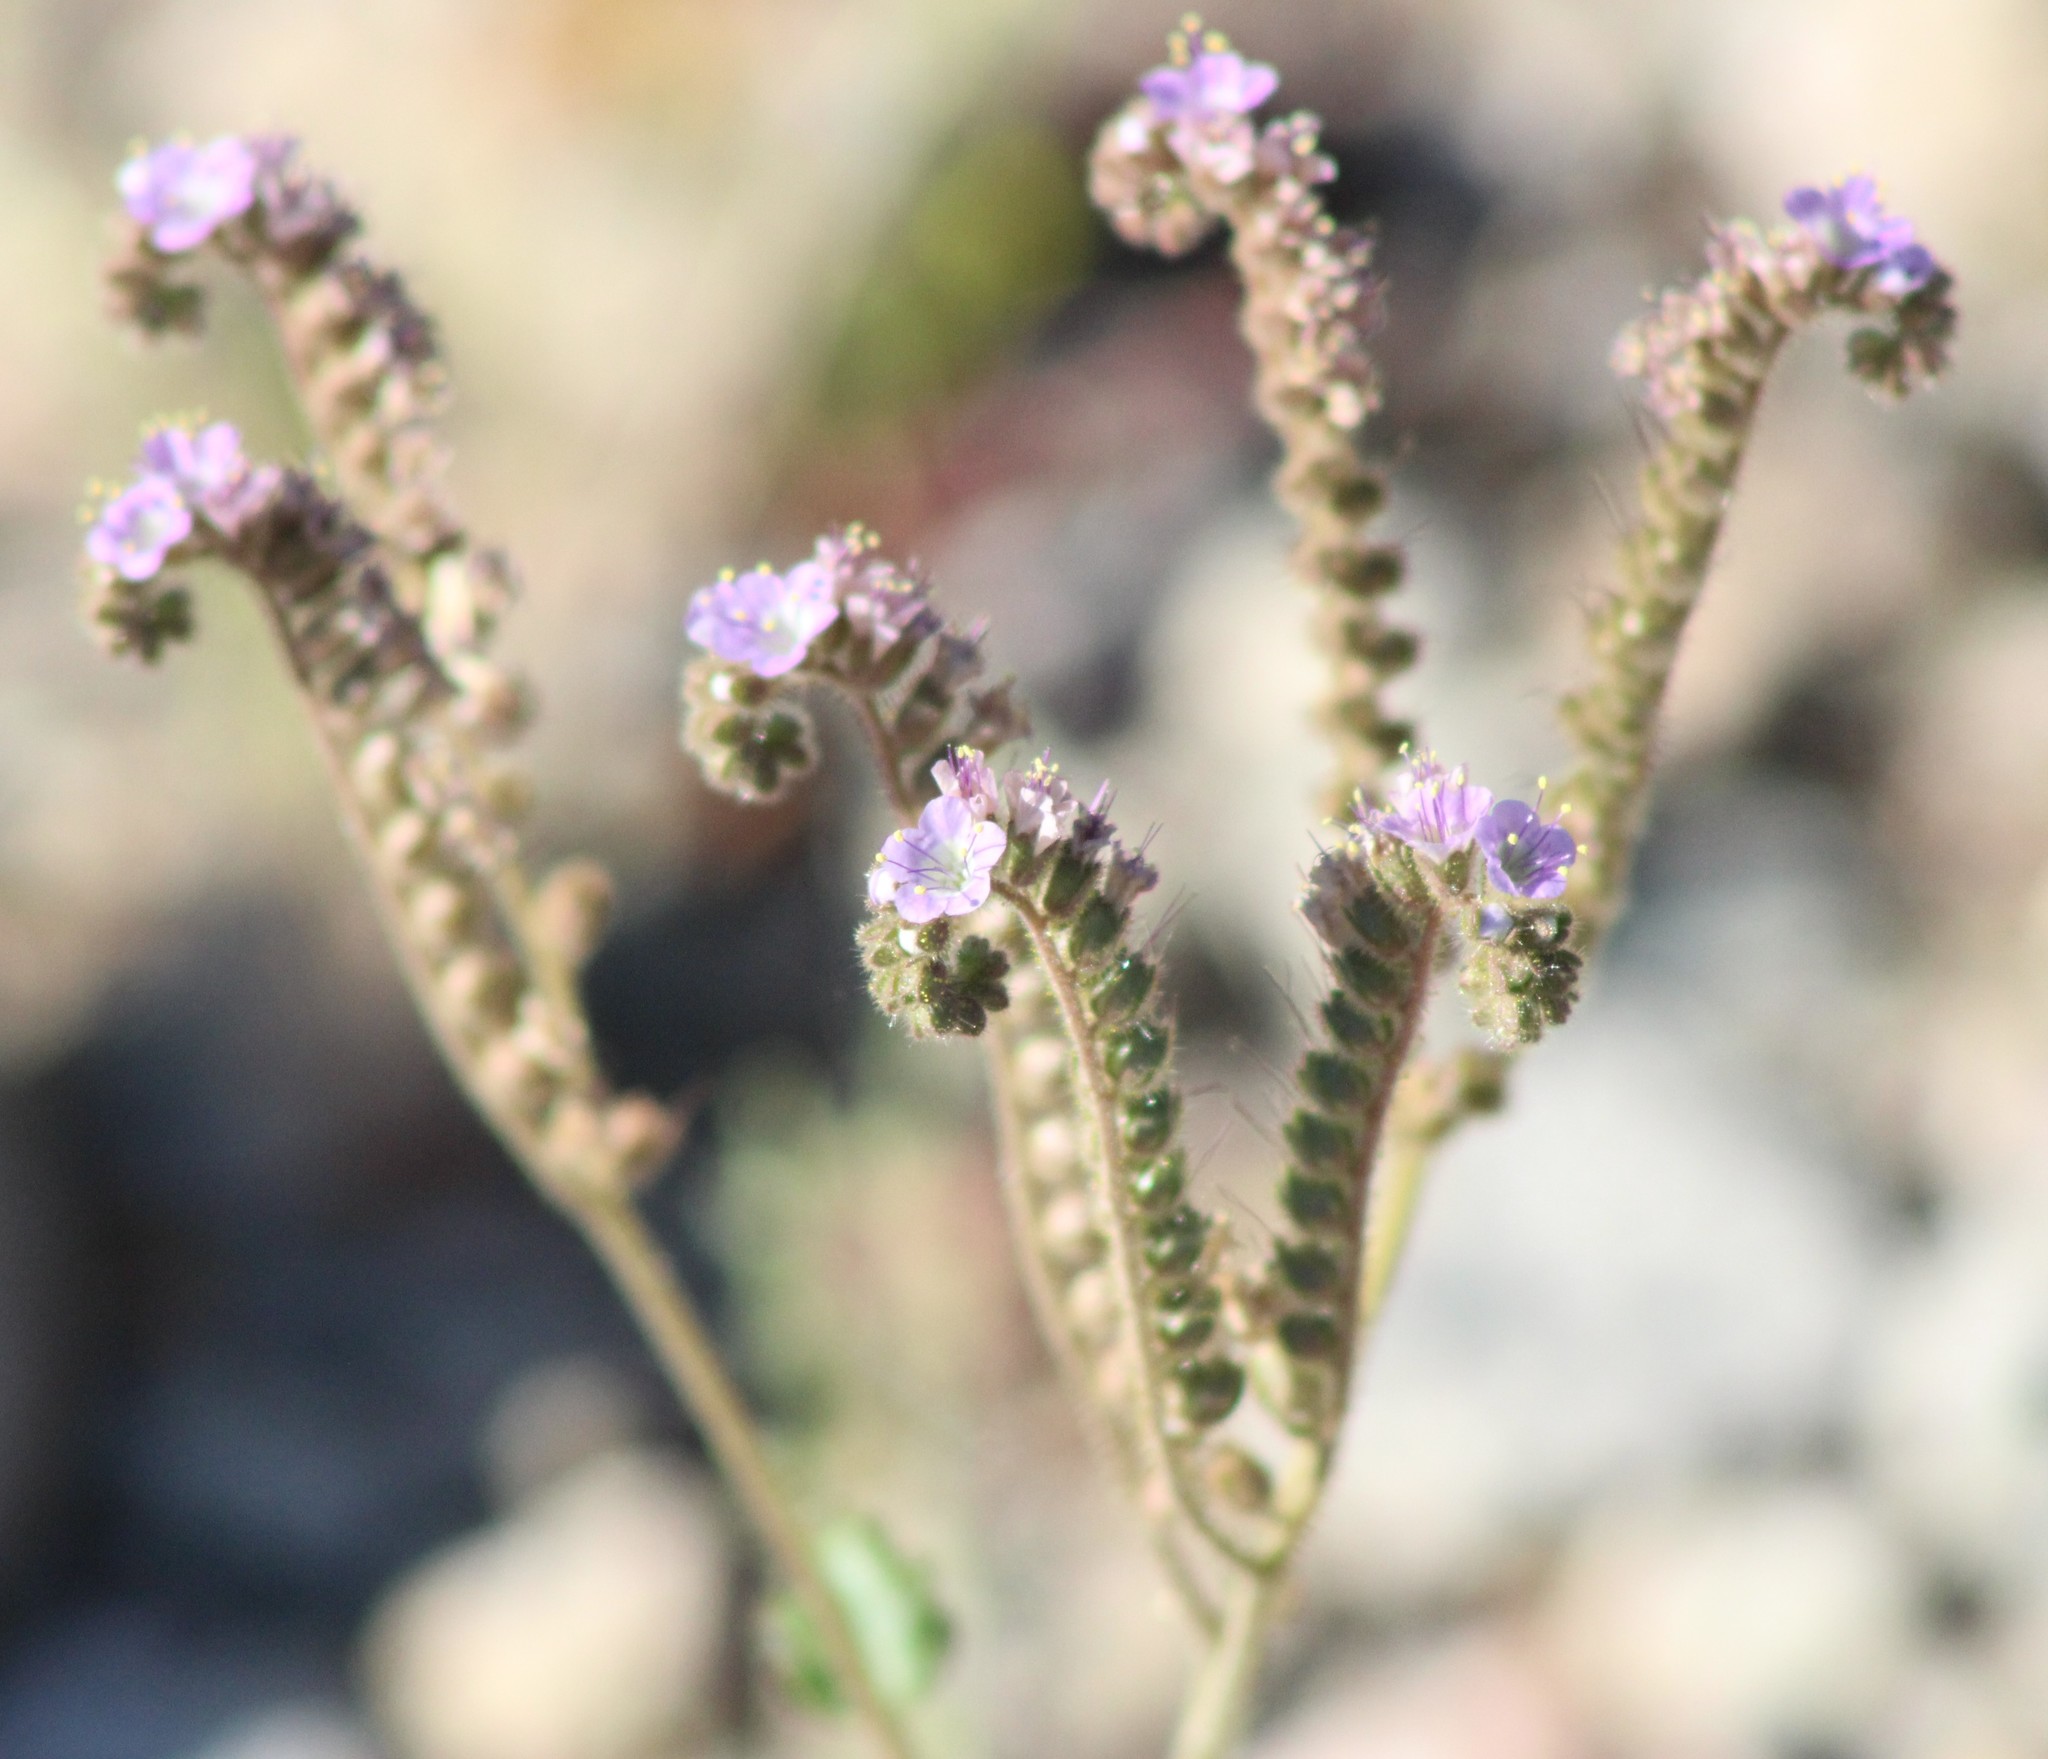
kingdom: Plantae
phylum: Tracheophyta
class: Magnoliopsida
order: Boraginales
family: Hydrophyllaceae
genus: Phacelia
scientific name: Phacelia crenulata
